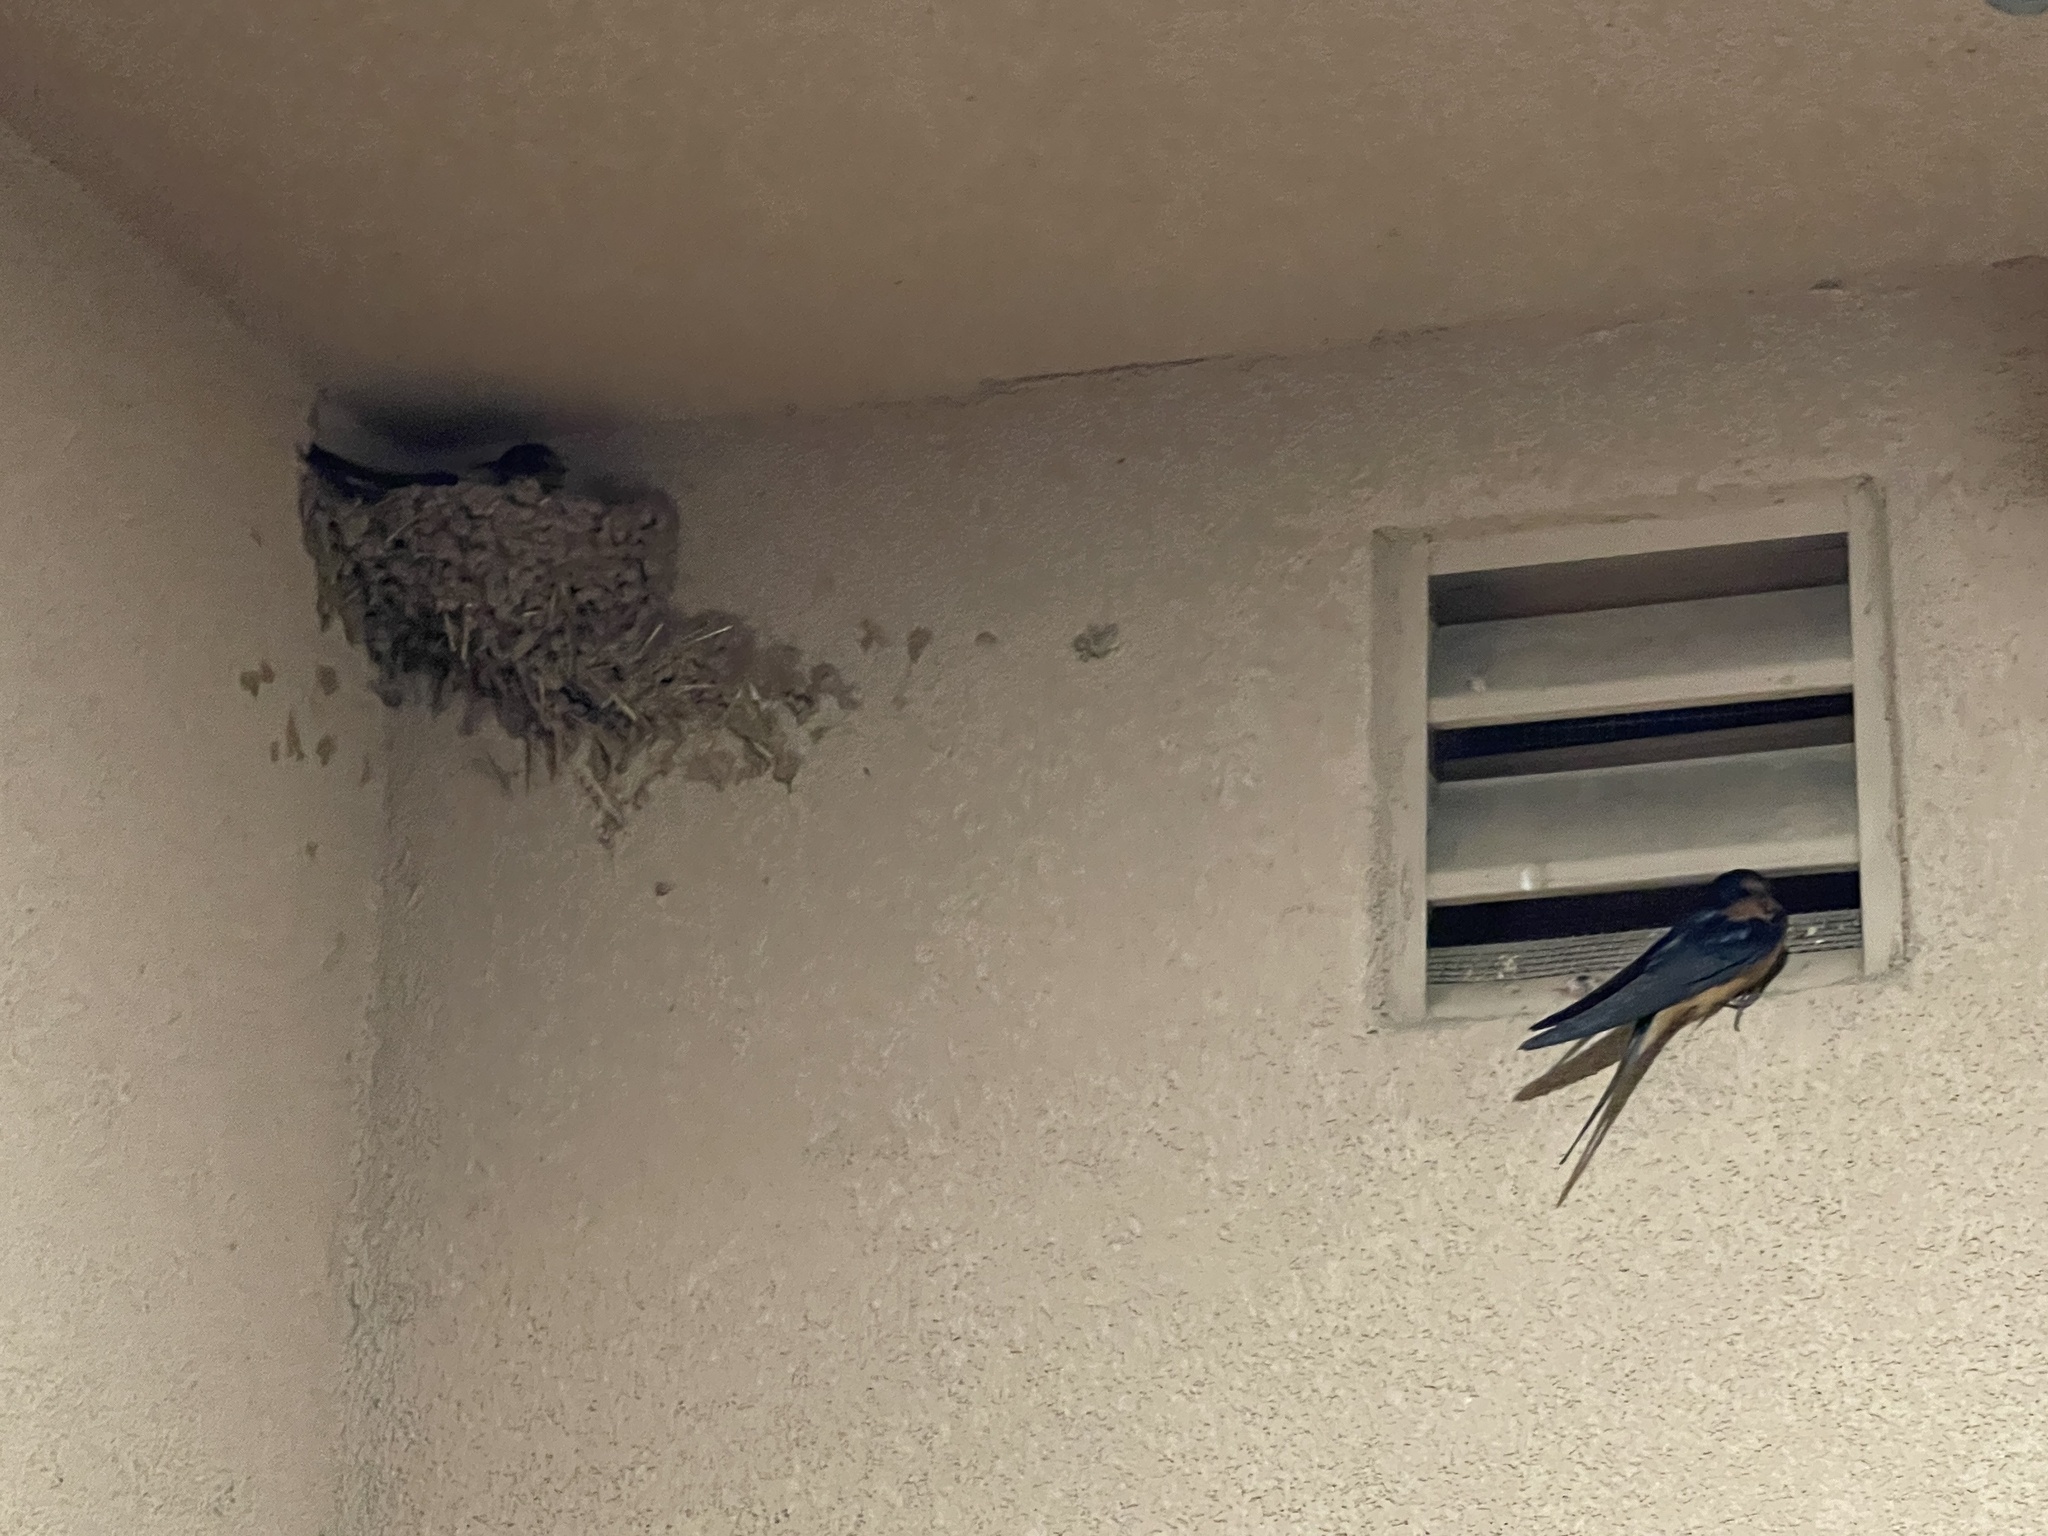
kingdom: Animalia
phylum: Chordata
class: Aves
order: Passeriformes
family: Hirundinidae
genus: Hirundo
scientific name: Hirundo rustica
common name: Barn swallow
